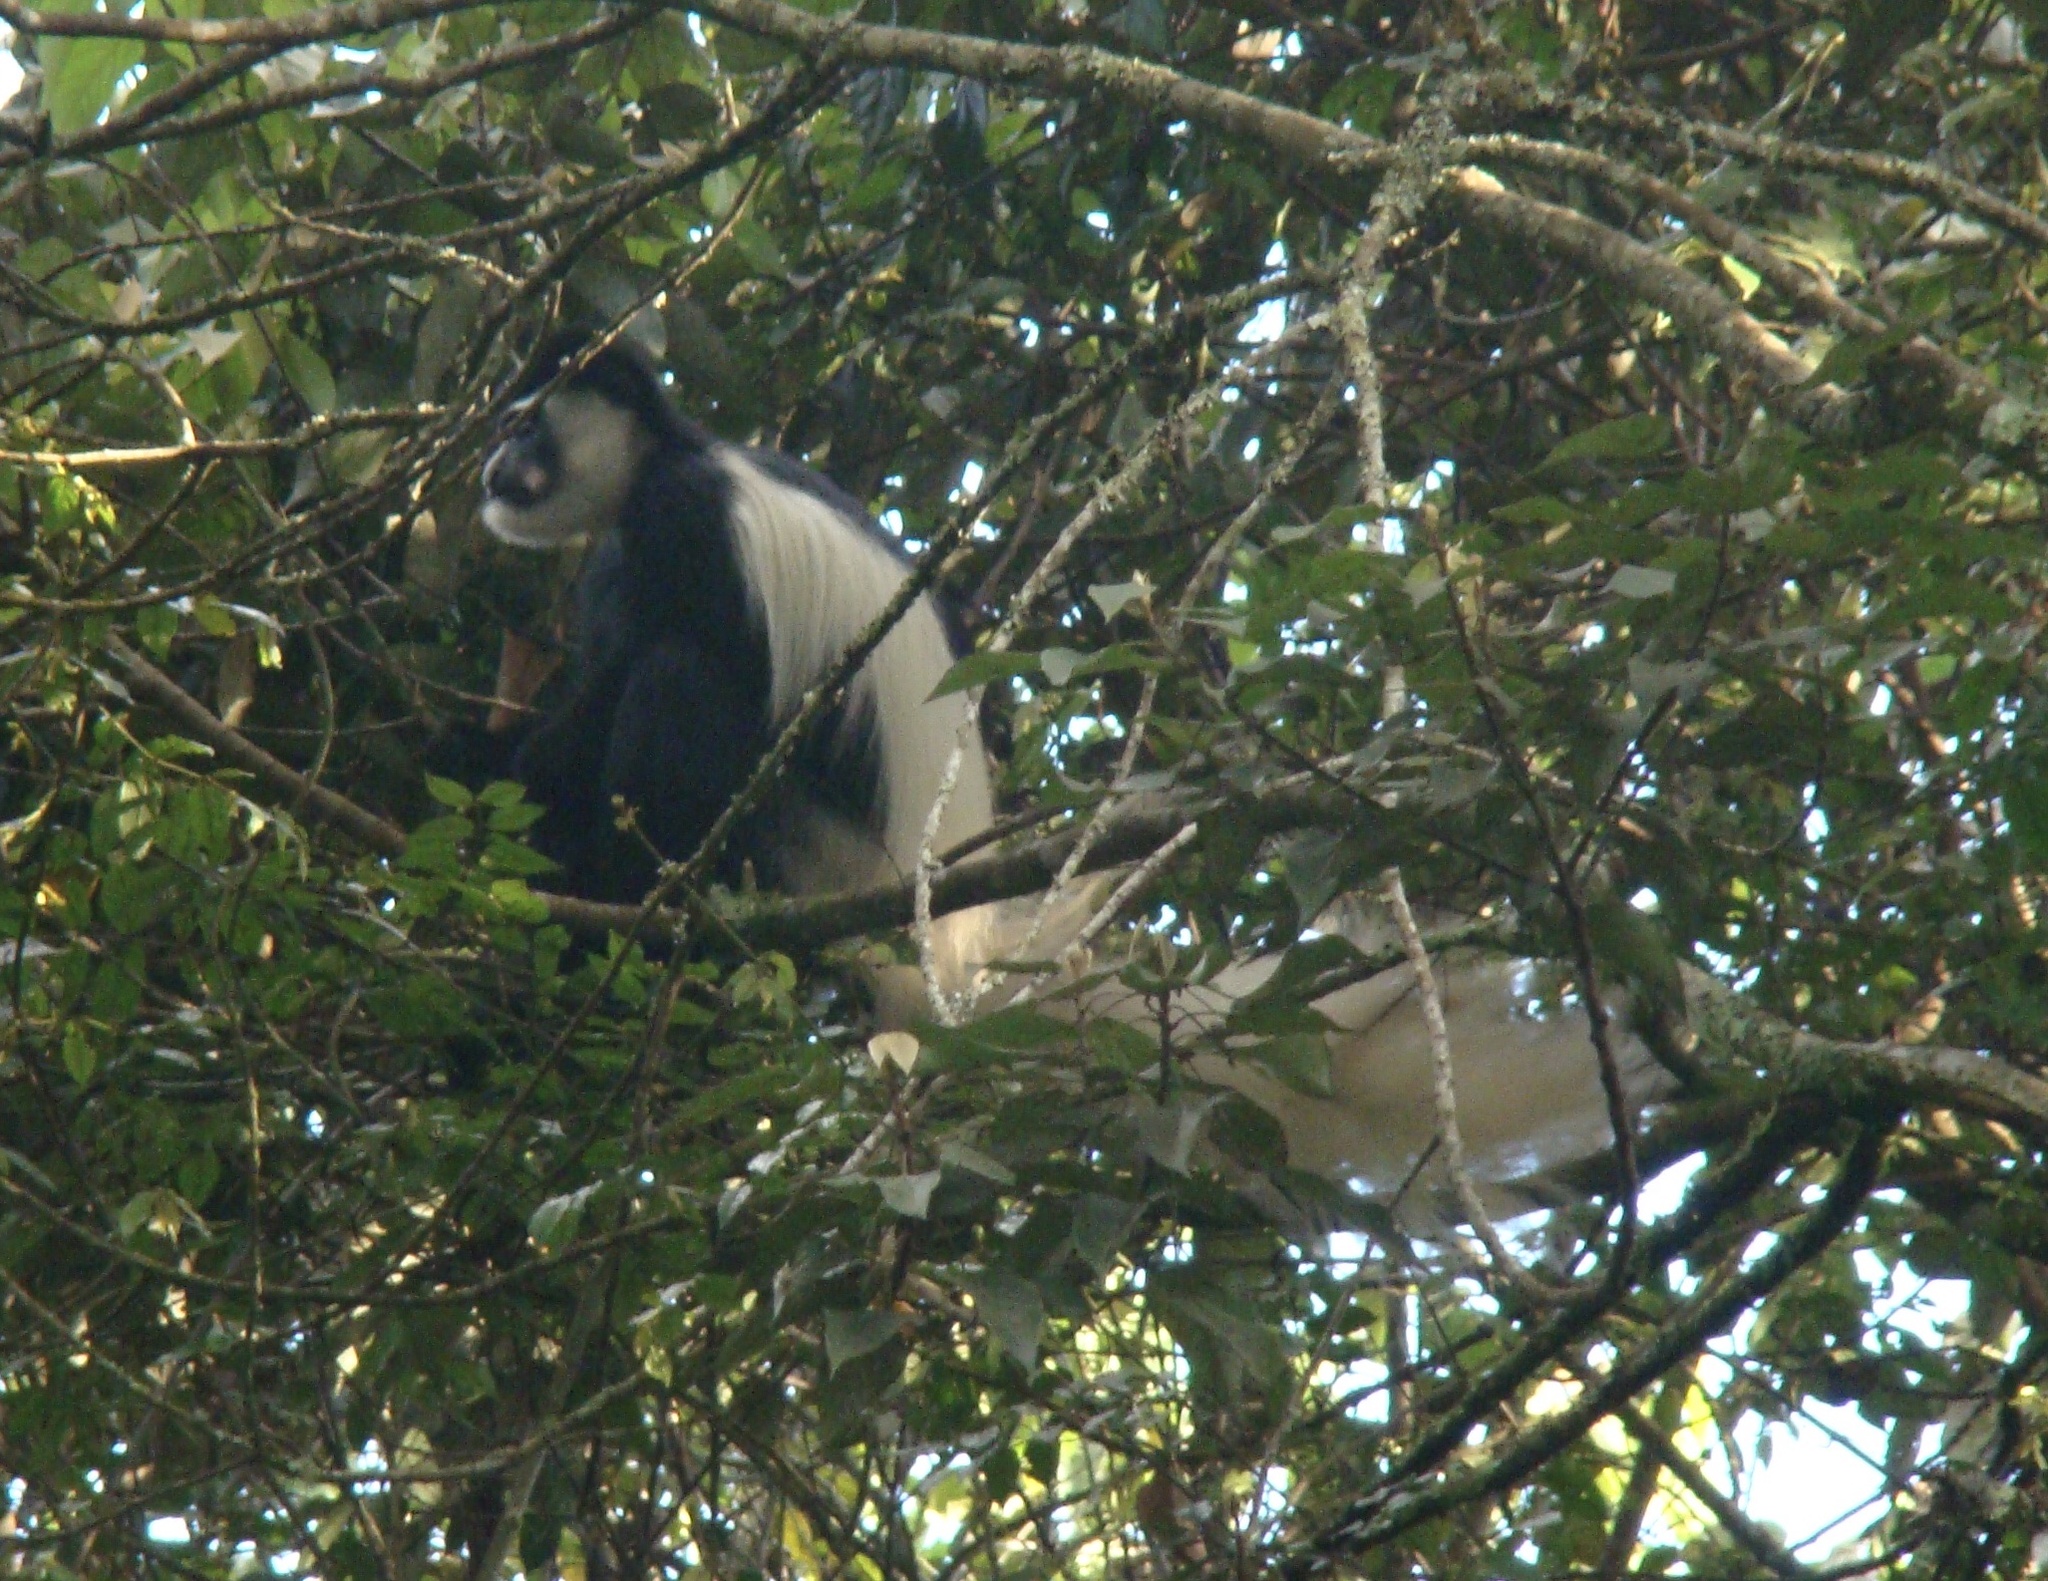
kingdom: Animalia
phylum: Chordata
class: Mammalia
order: Primates
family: Cercopithecidae
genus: Colobus
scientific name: Colobus caudatus
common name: Mount kilimanjaro guereza
